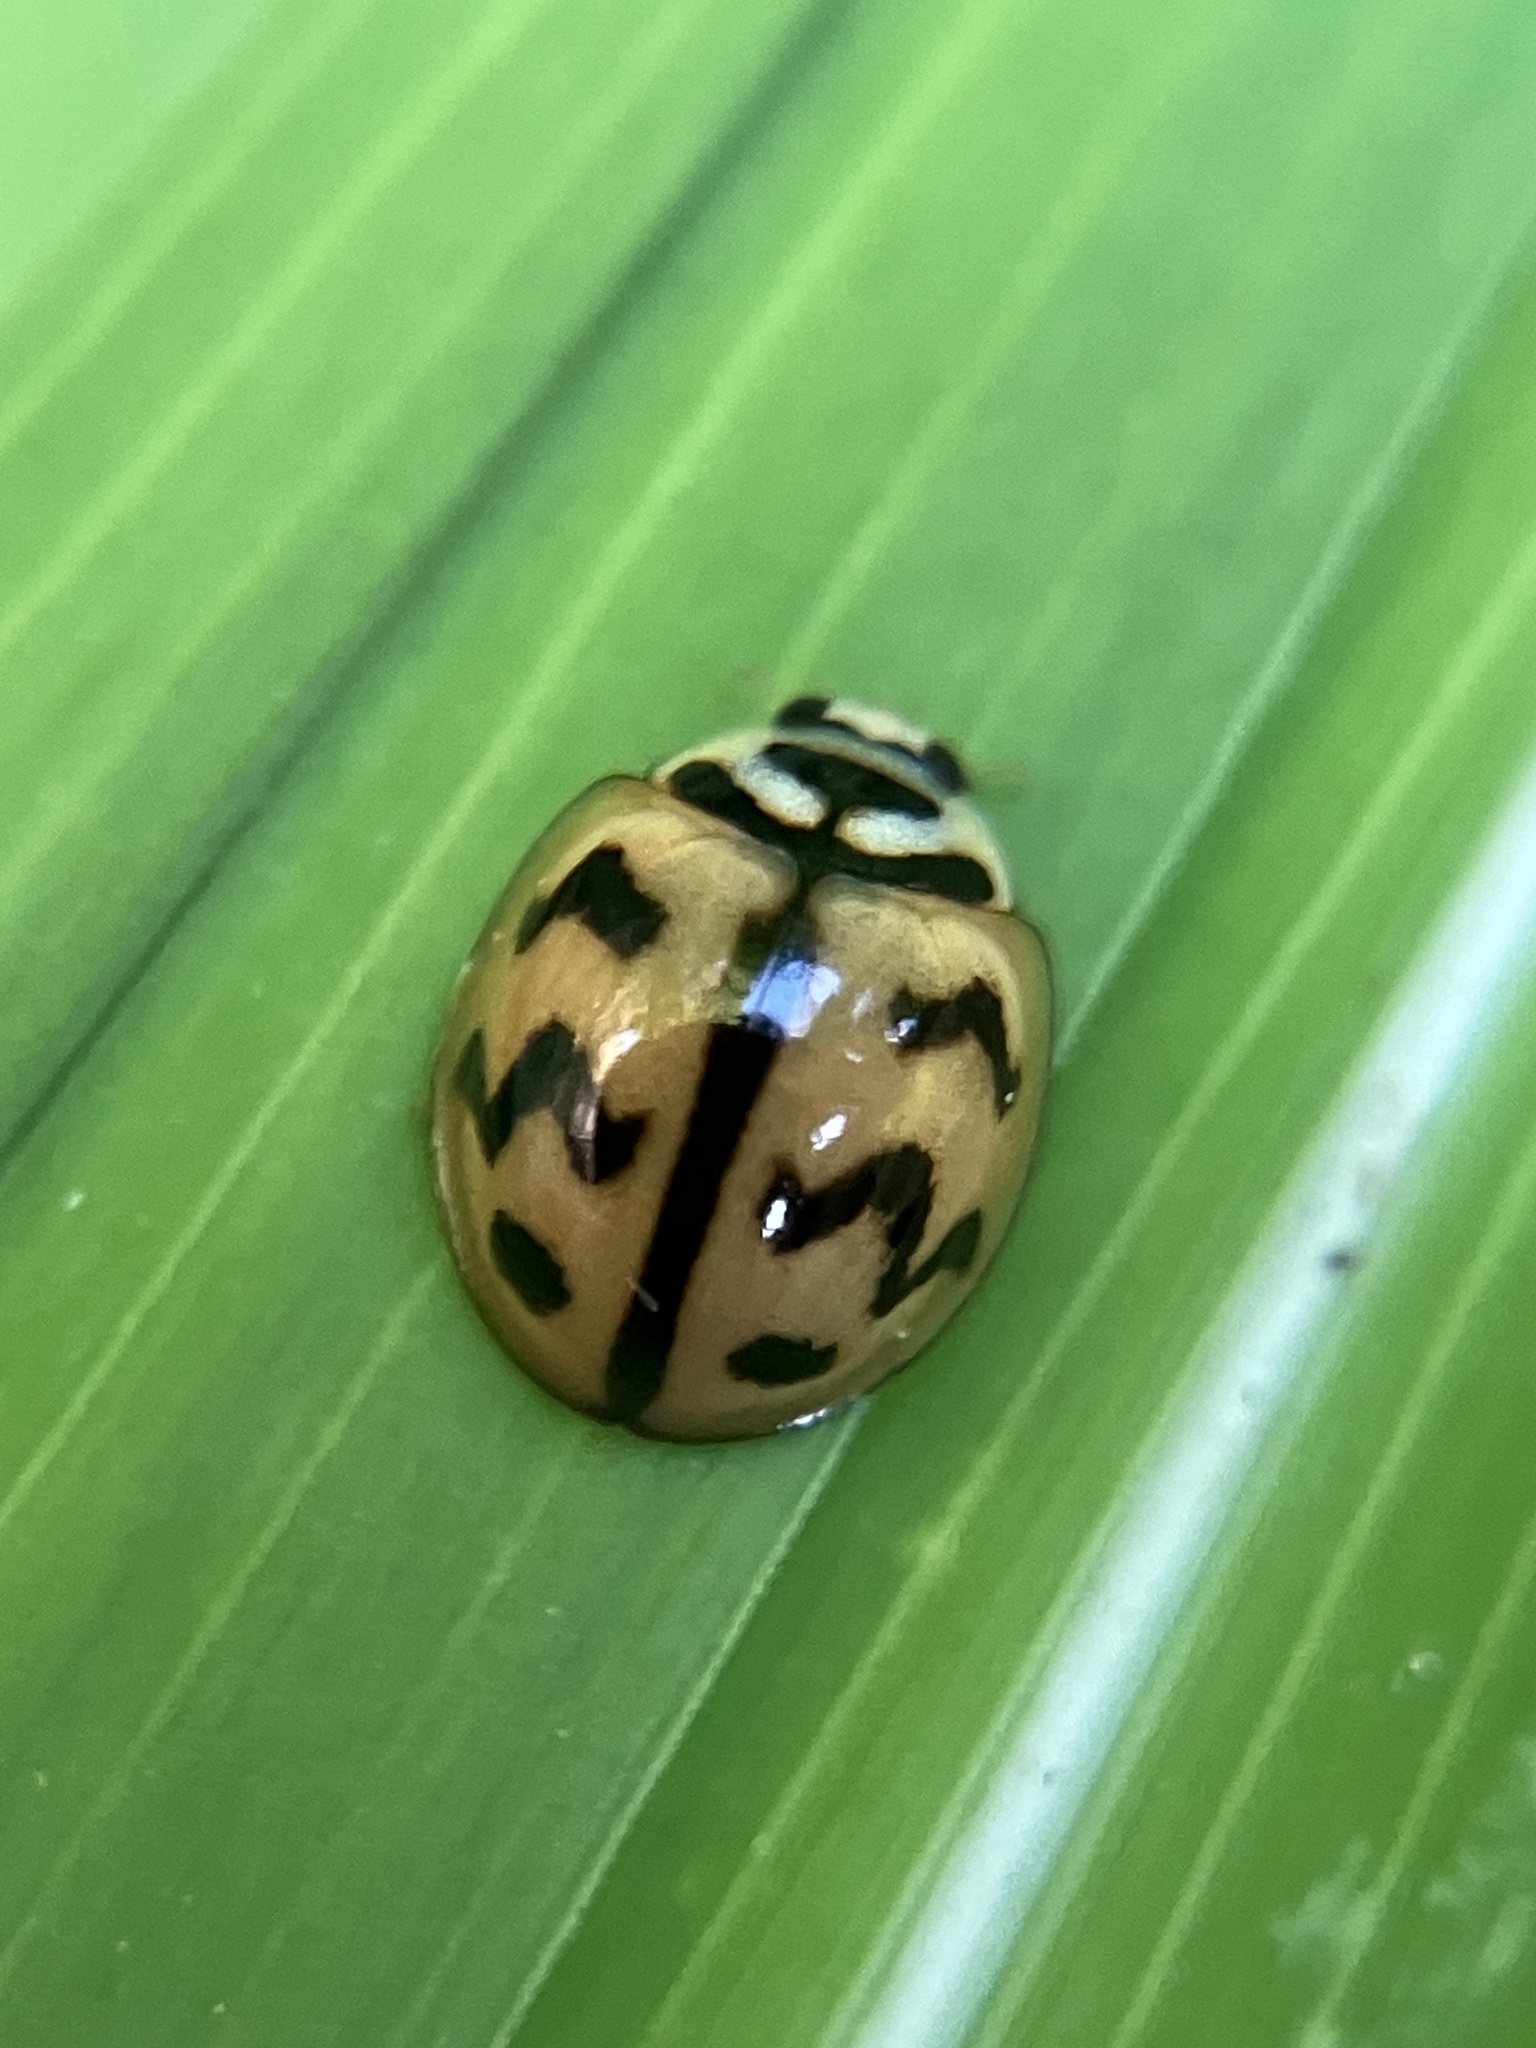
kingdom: Animalia
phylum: Arthropoda
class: Insecta
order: Coleoptera
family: Coccinellidae
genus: Cheilomenes
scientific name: Cheilomenes sexmaculata
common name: Ladybird beetle
